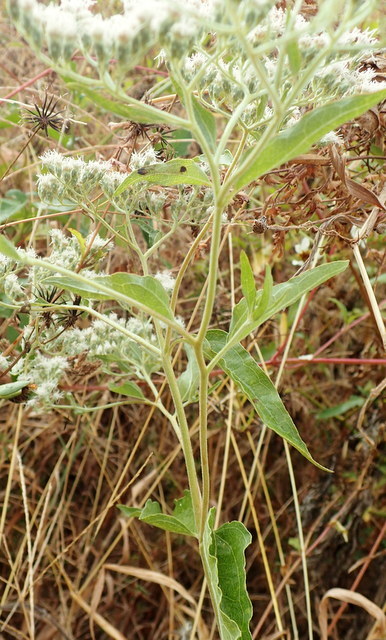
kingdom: Plantae
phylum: Tracheophyta
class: Magnoliopsida
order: Asterales
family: Asteraceae
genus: Eupatorium
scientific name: Eupatorium serotinum
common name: Late boneset
